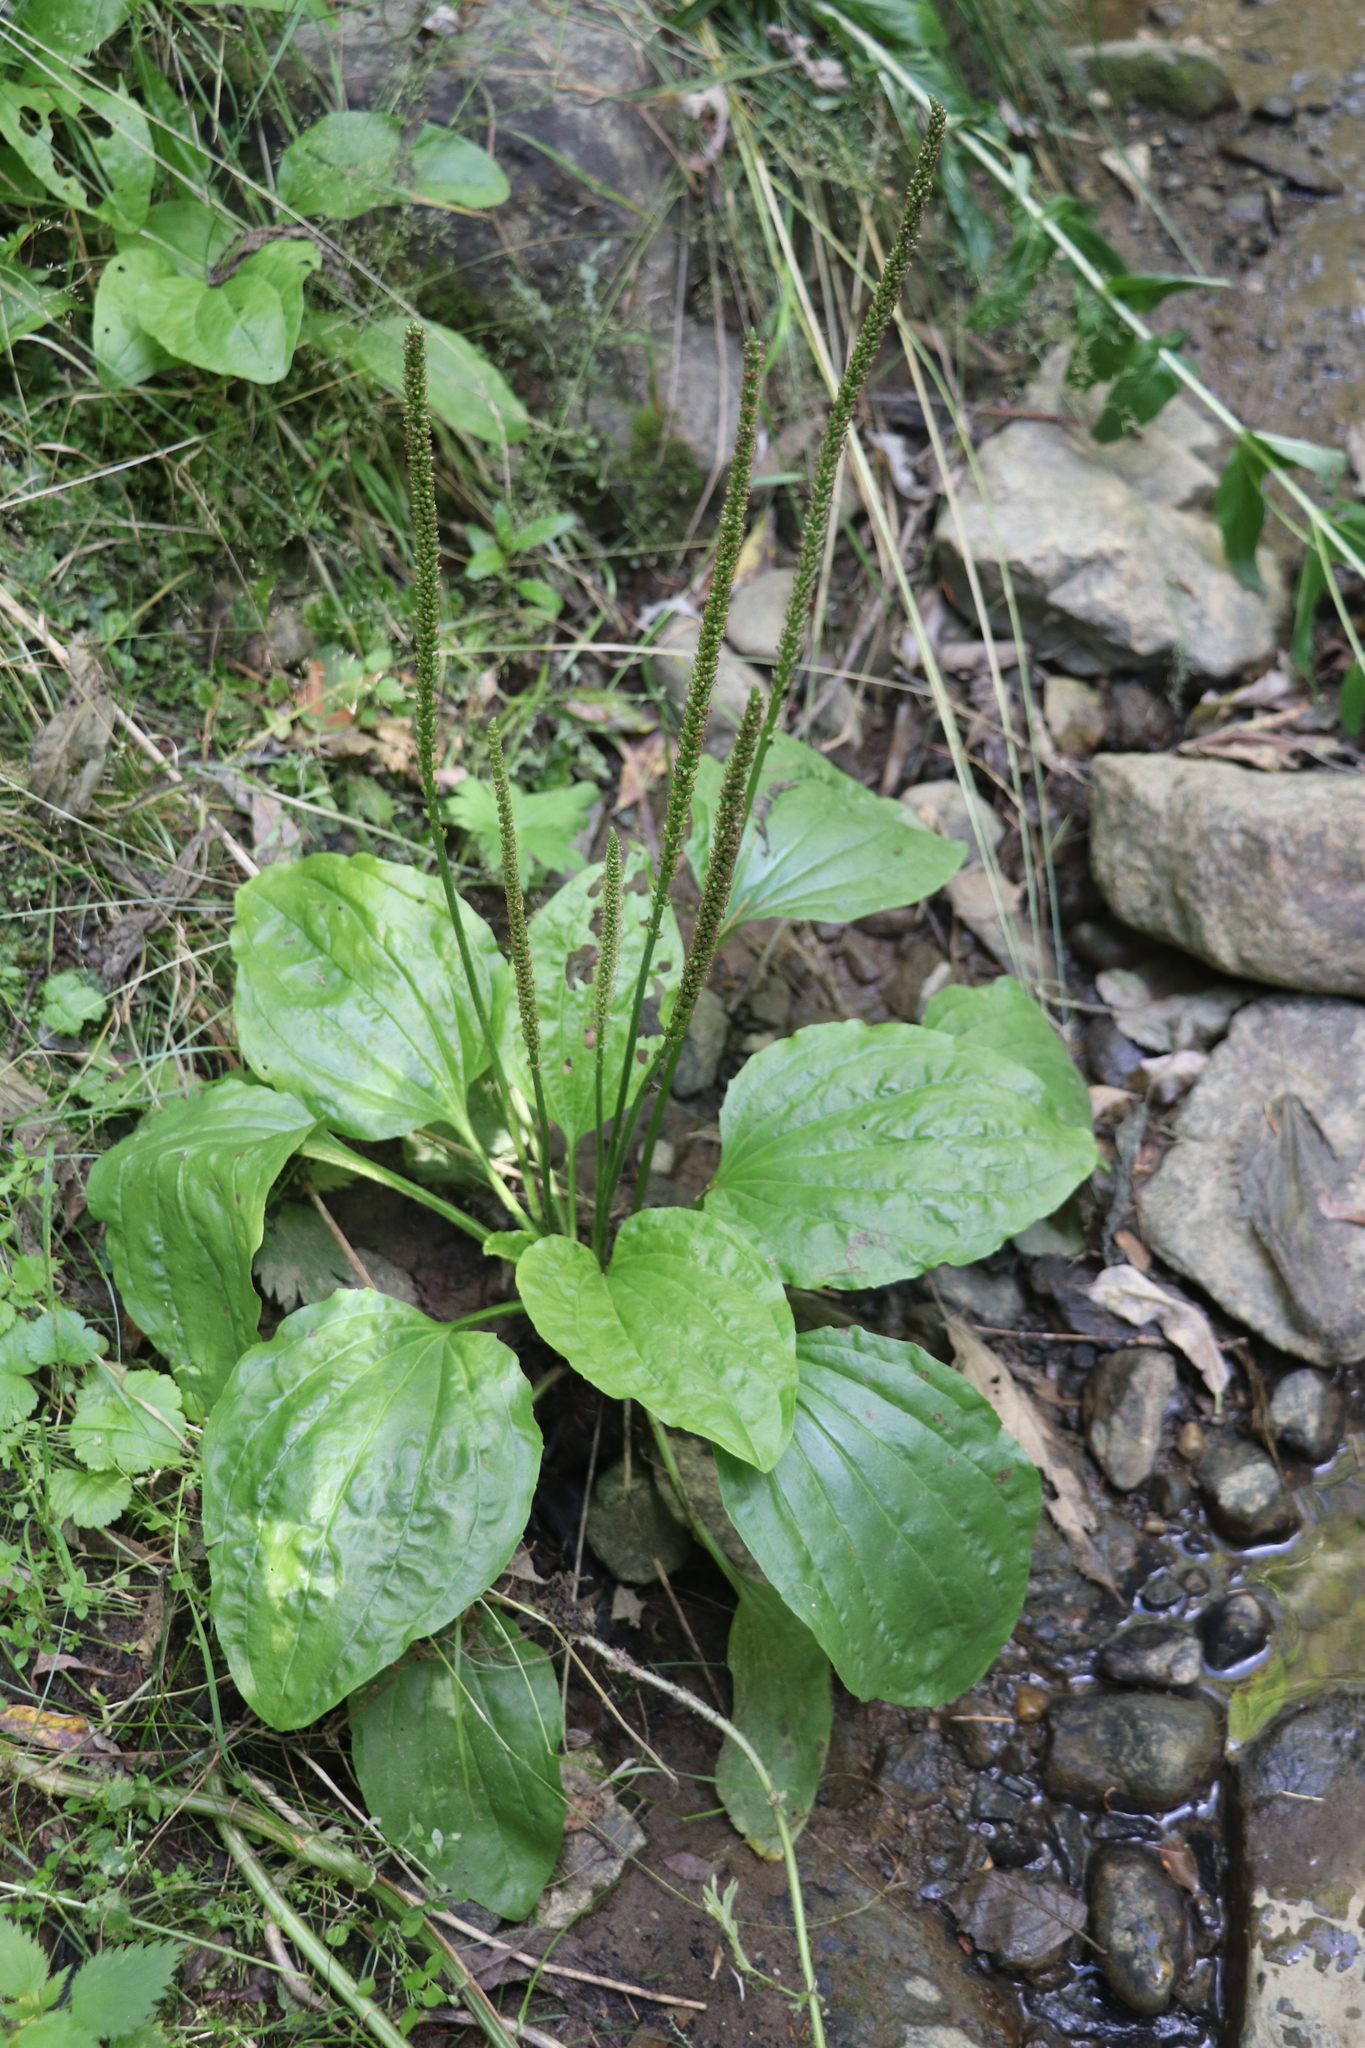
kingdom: Plantae
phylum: Tracheophyta
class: Magnoliopsida
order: Lamiales
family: Plantaginaceae
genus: Plantago
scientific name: Plantago major
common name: Common plantain
